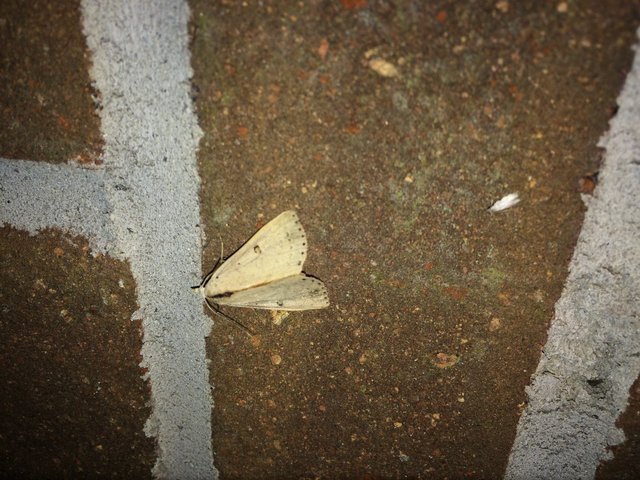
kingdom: Animalia
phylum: Arthropoda
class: Insecta
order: Lepidoptera
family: Erebidae
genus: Scolecocampa
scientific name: Scolecocampa liburna
